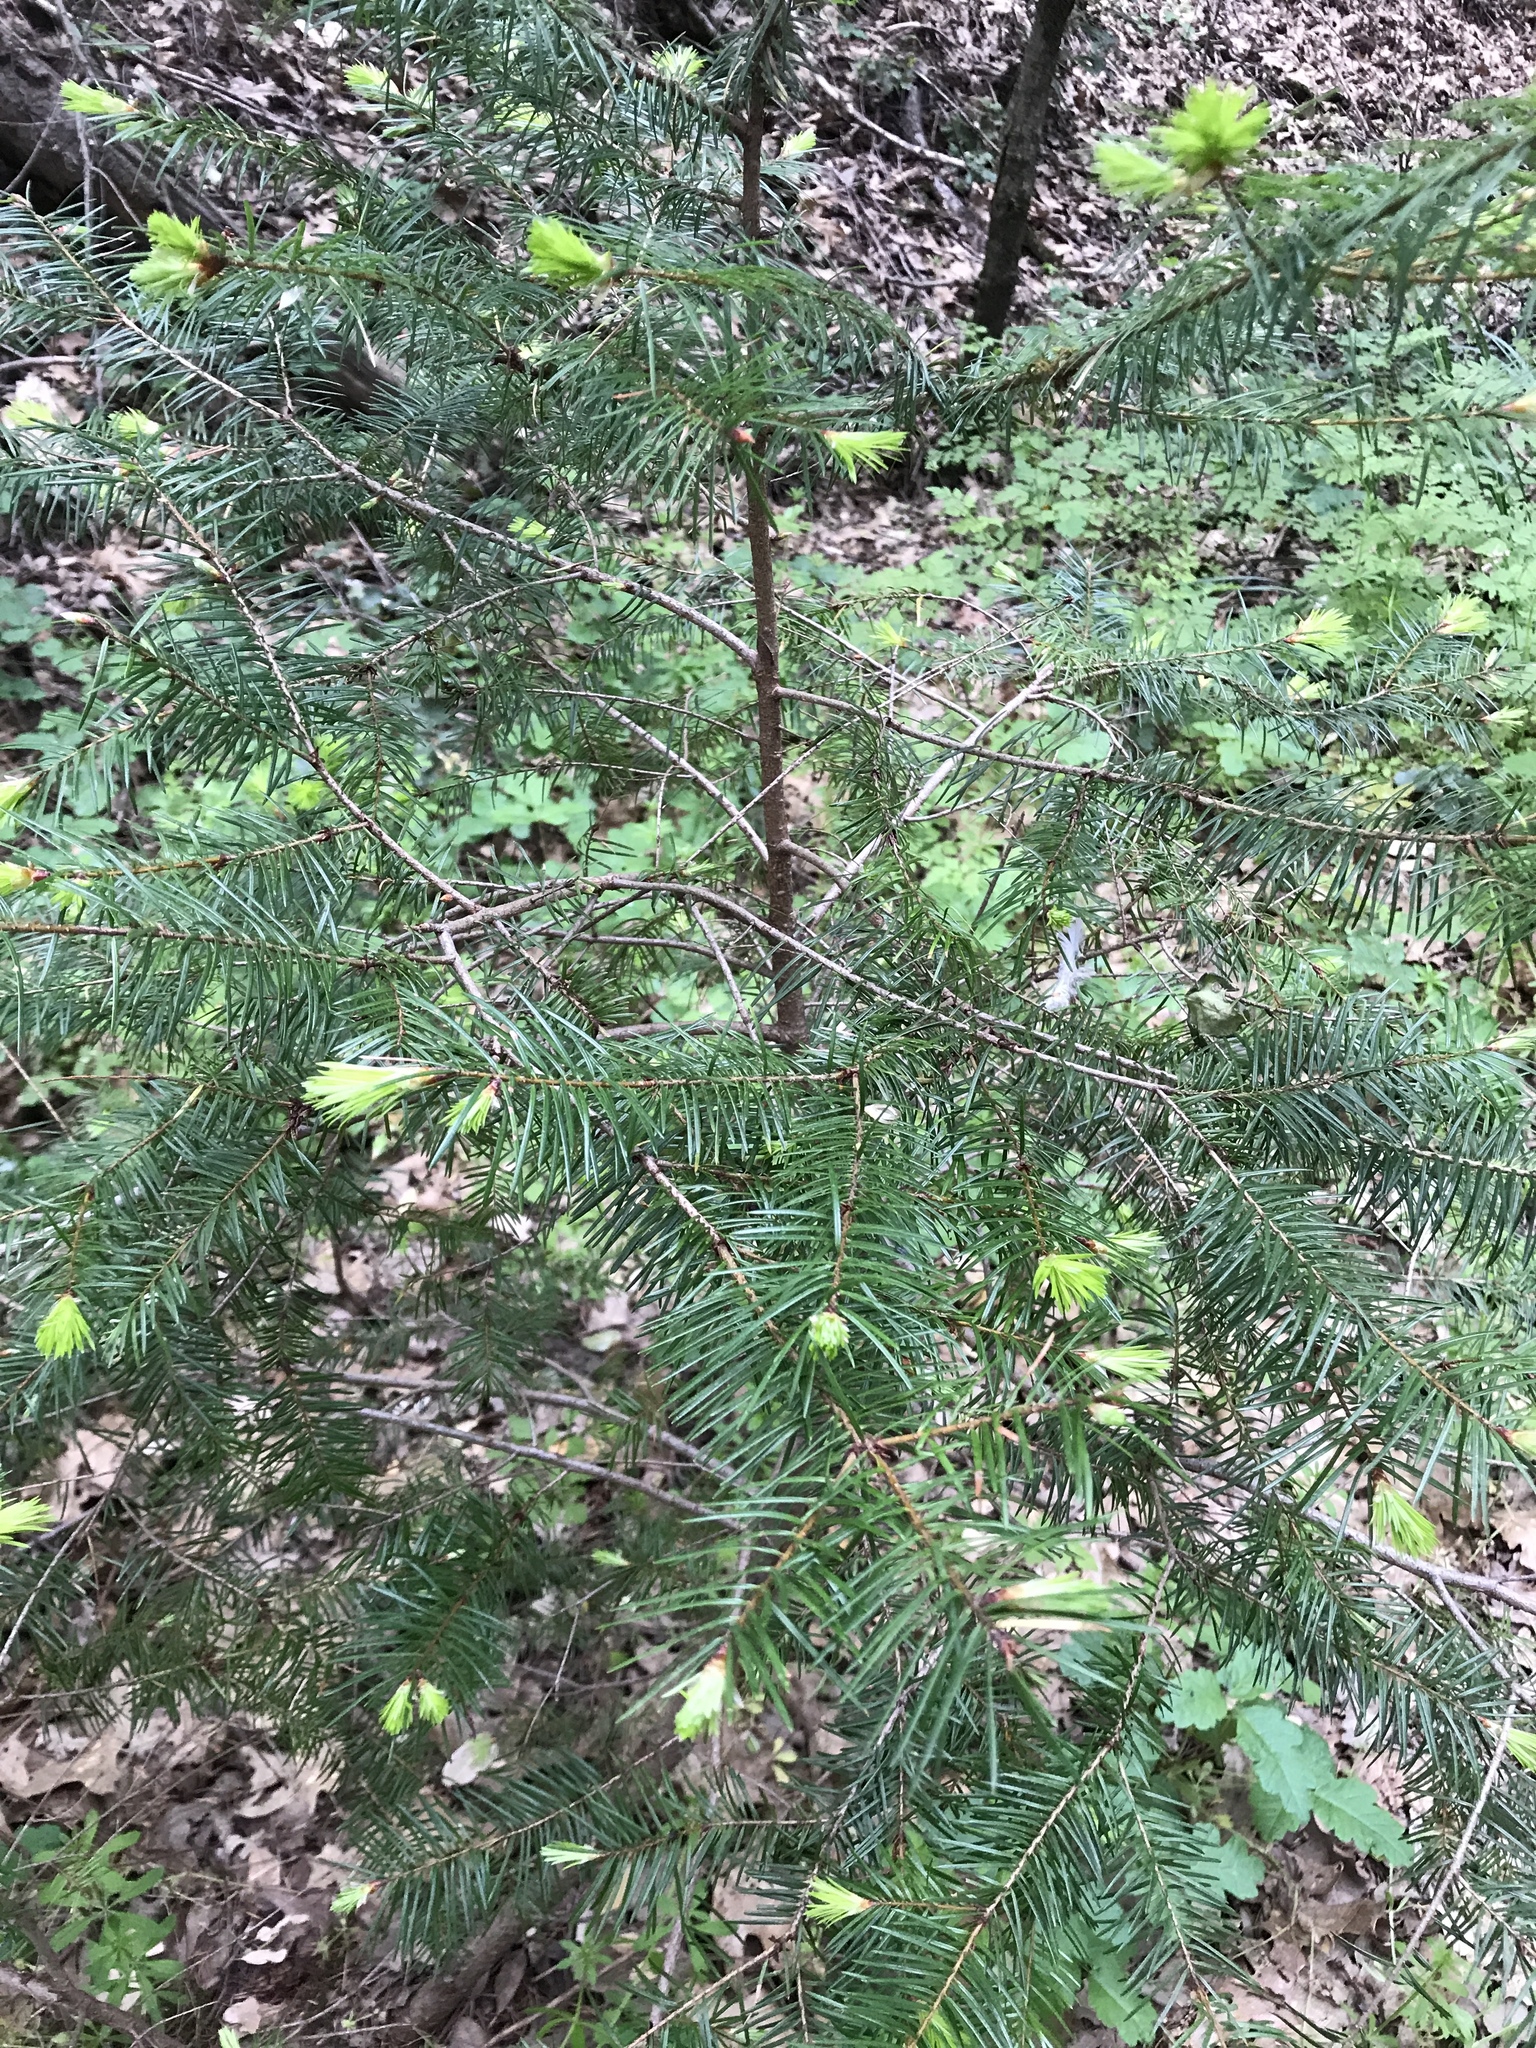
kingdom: Plantae
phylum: Tracheophyta
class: Pinopsida
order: Pinales
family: Pinaceae
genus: Pseudotsuga
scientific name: Pseudotsuga menziesii
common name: Douglas fir
